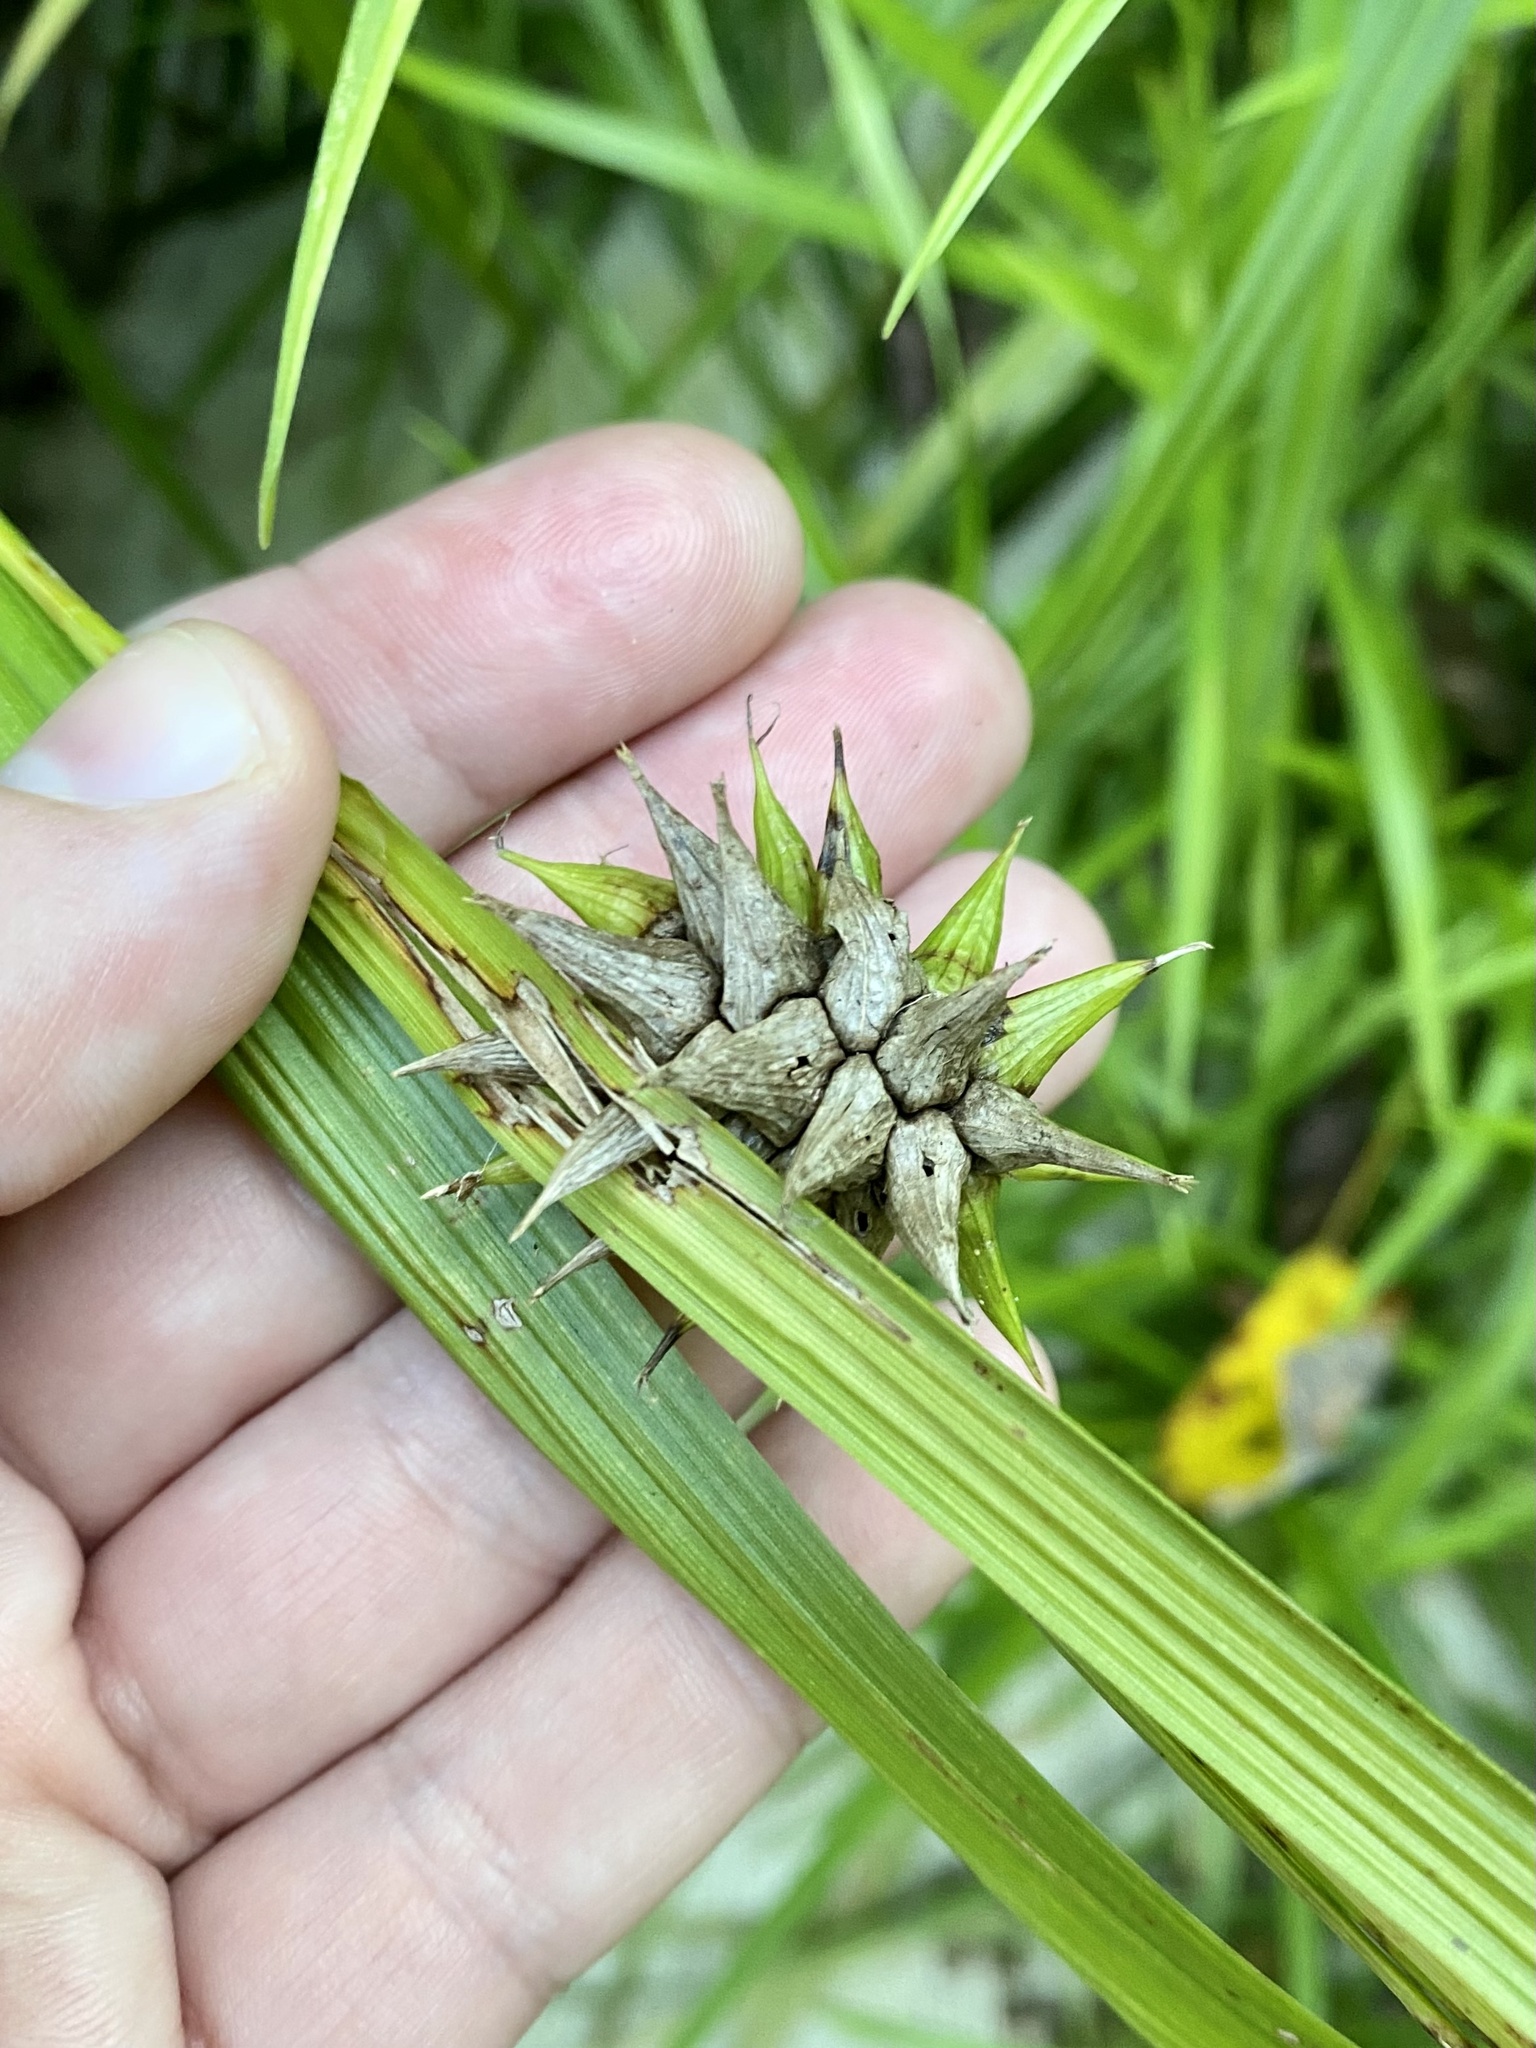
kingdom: Plantae
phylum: Tracheophyta
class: Liliopsida
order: Poales
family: Cyperaceae
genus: Carex
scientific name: Carex grayi
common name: Asa gray's sedge
